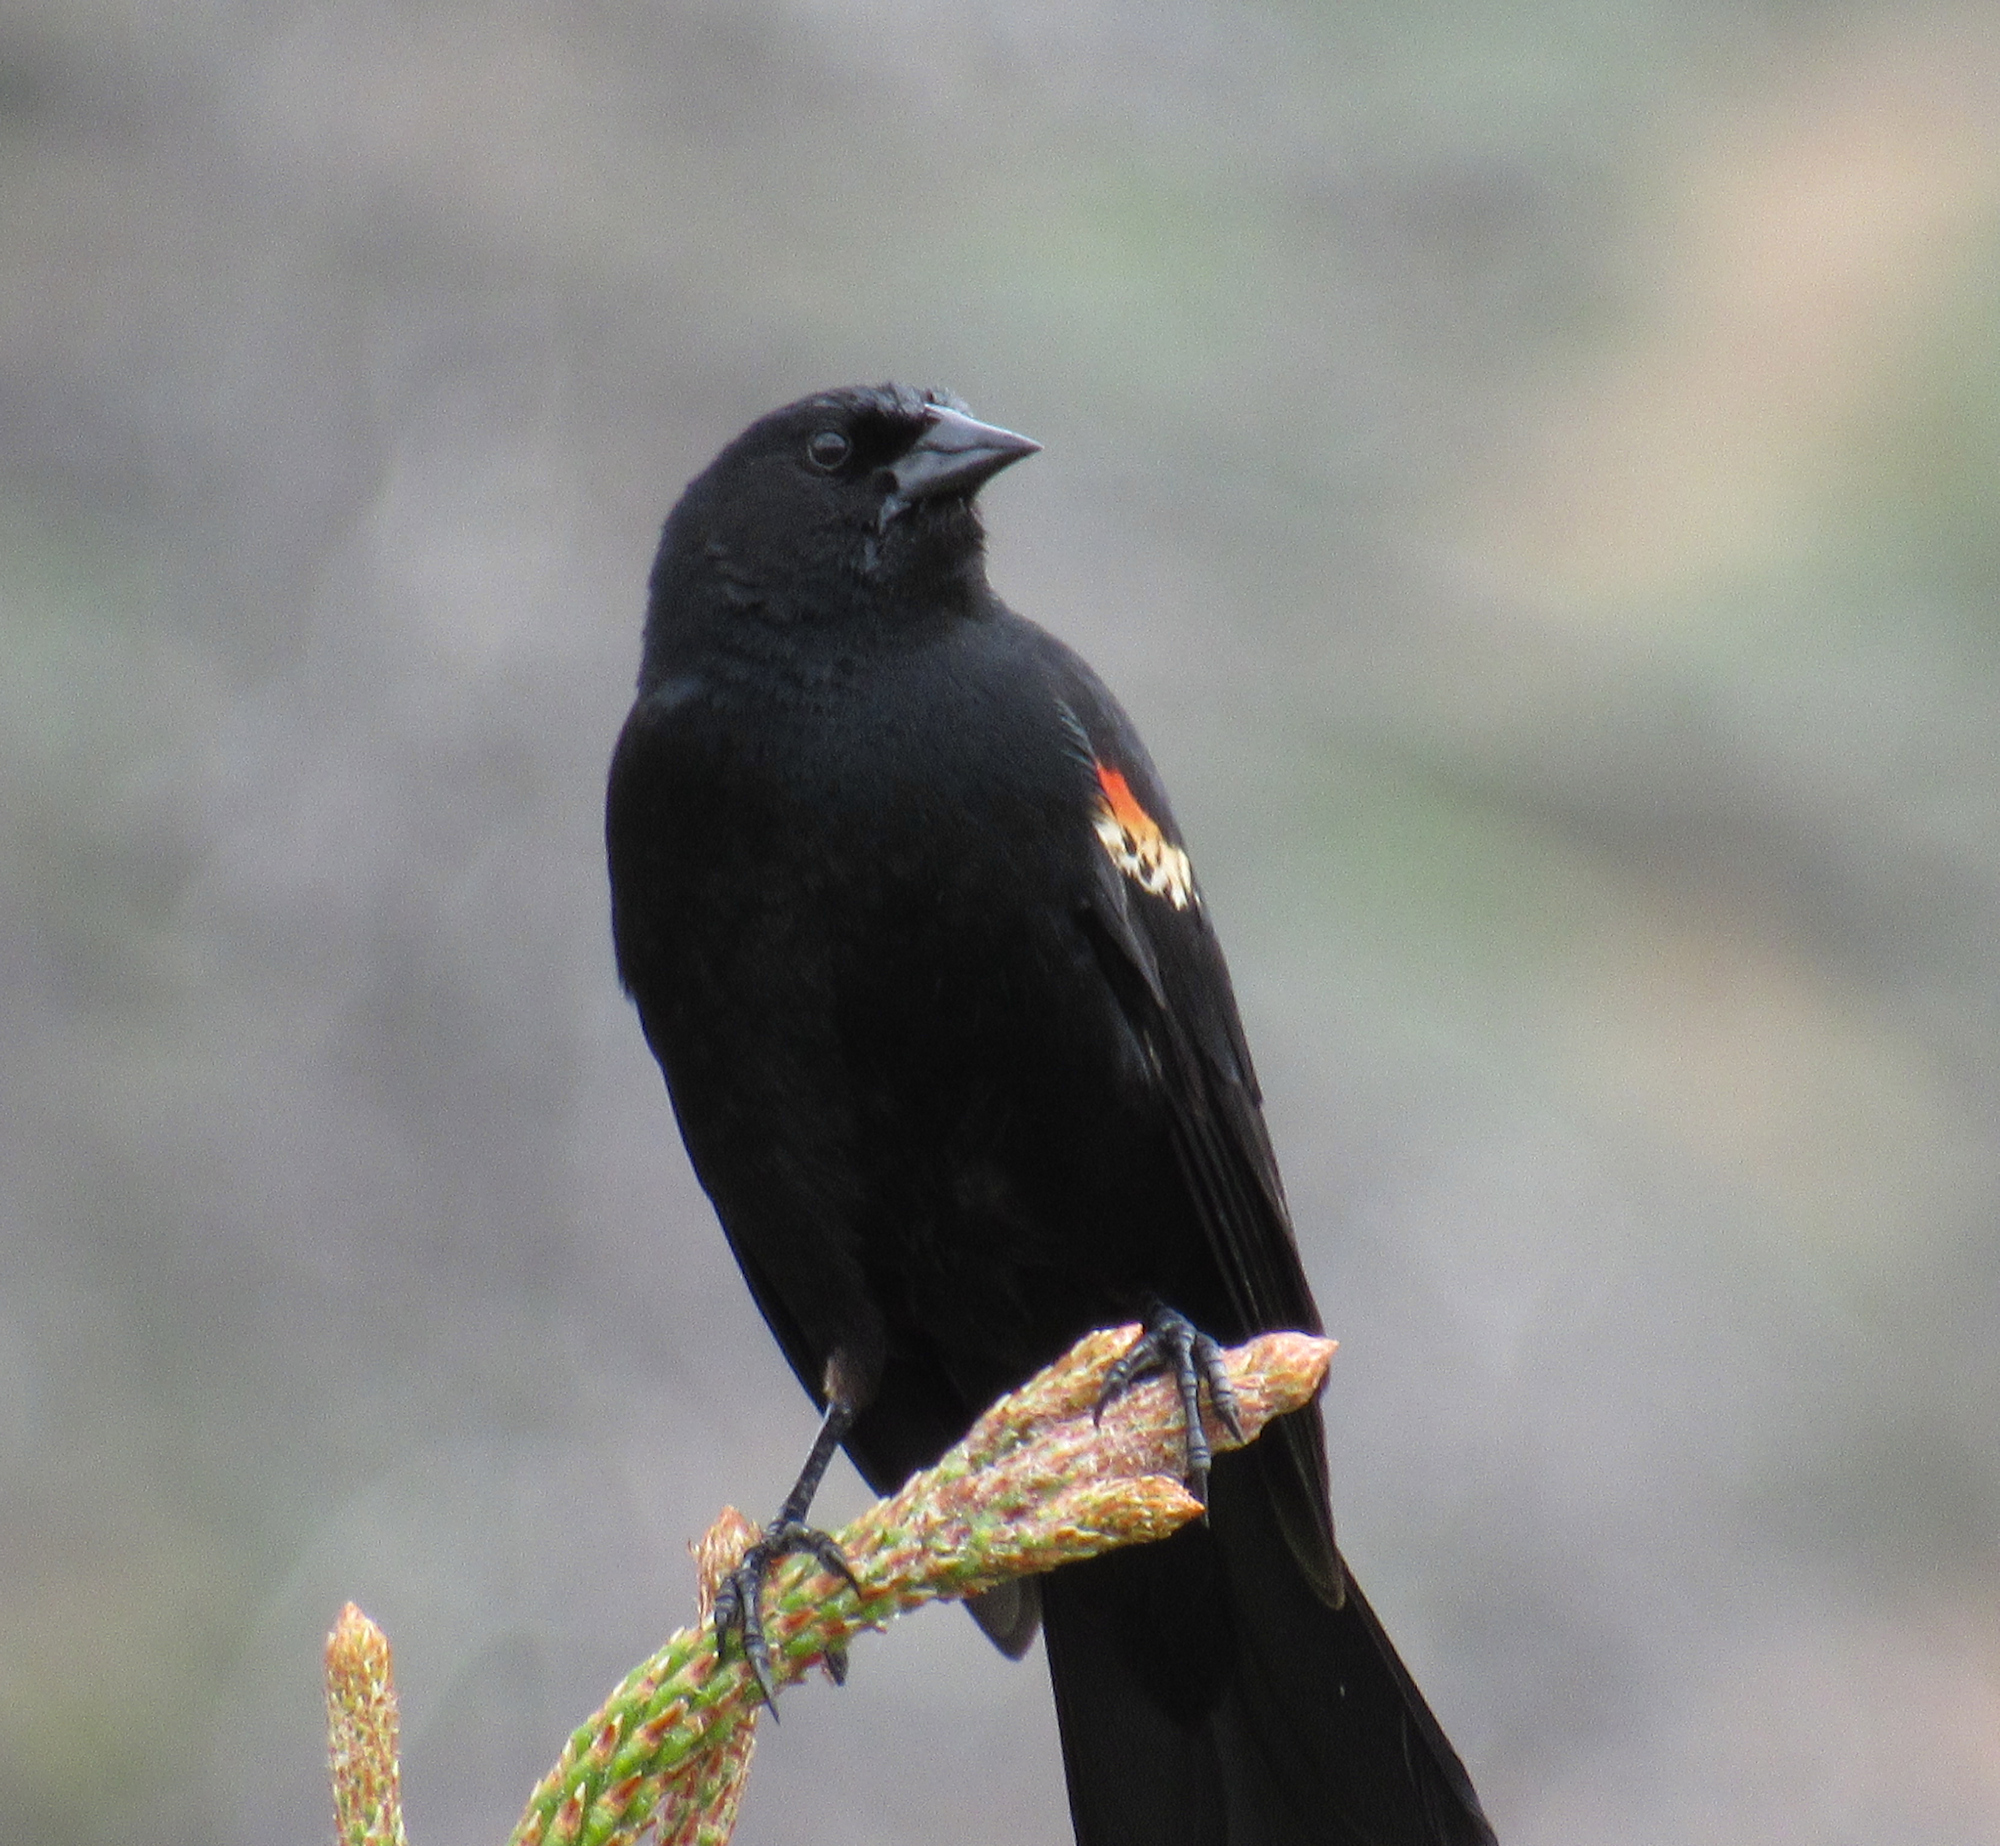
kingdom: Animalia
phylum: Chordata
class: Aves
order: Passeriformes
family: Icteridae
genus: Agelaius
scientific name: Agelaius phoeniceus
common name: Red-winged blackbird
